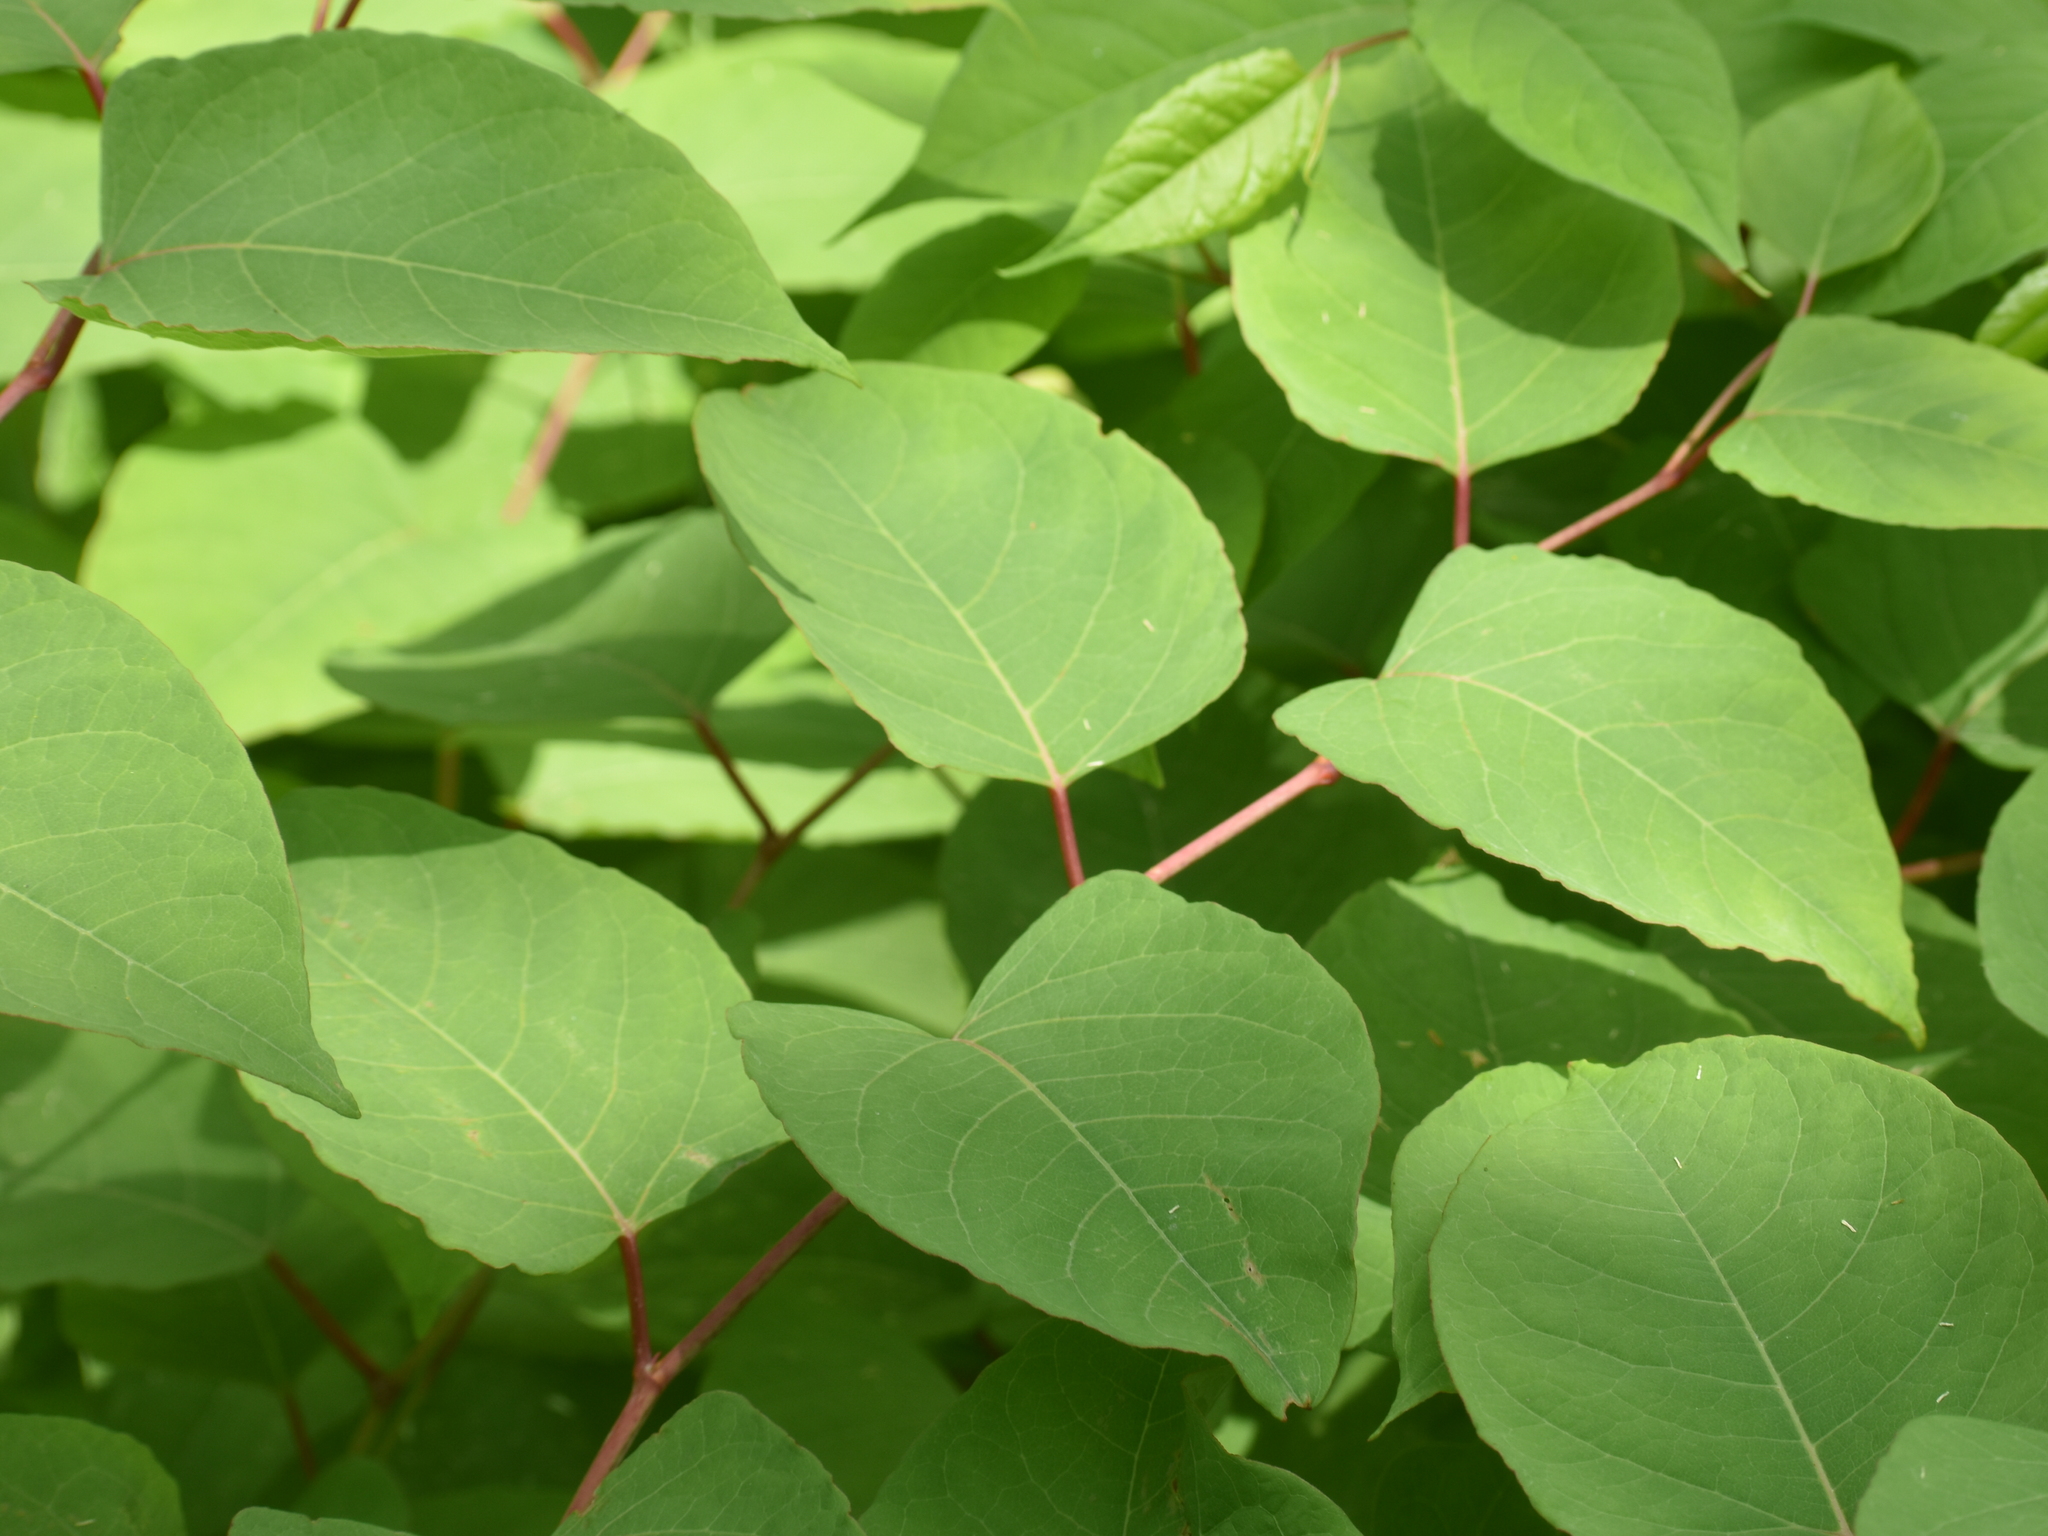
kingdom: Plantae
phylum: Tracheophyta
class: Magnoliopsida
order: Caryophyllales
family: Polygonaceae
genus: Reynoutria
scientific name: Reynoutria japonica
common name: Japanese knotweed
